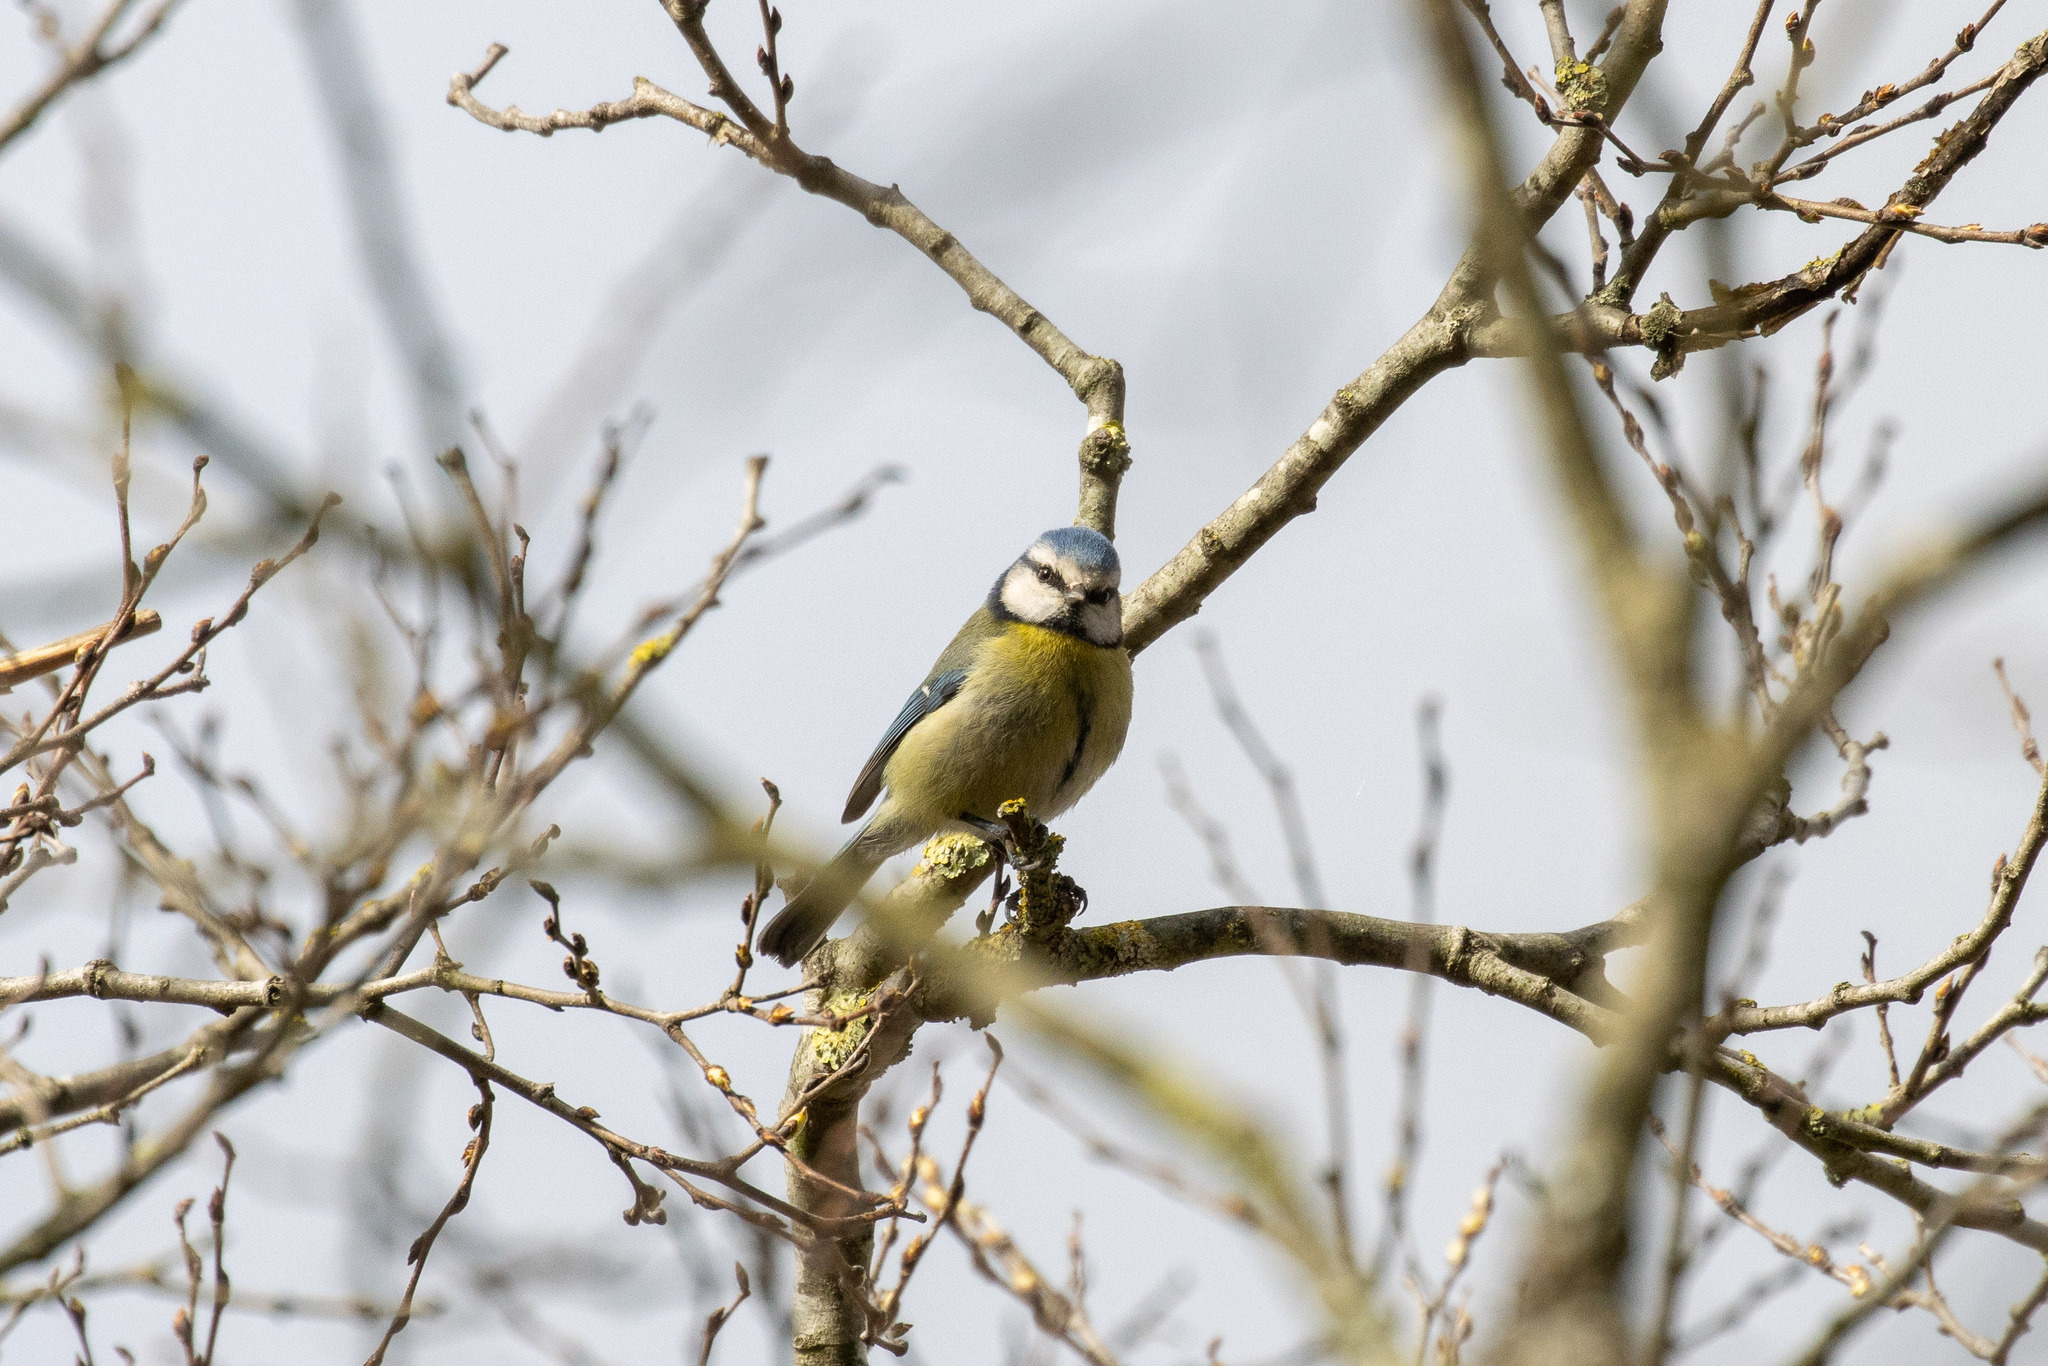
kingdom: Animalia
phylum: Chordata
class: Aves
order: Passeriformes
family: Paridae
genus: Cyanistes
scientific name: Cyanistes caeruleus
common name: Eurasian blue tit
